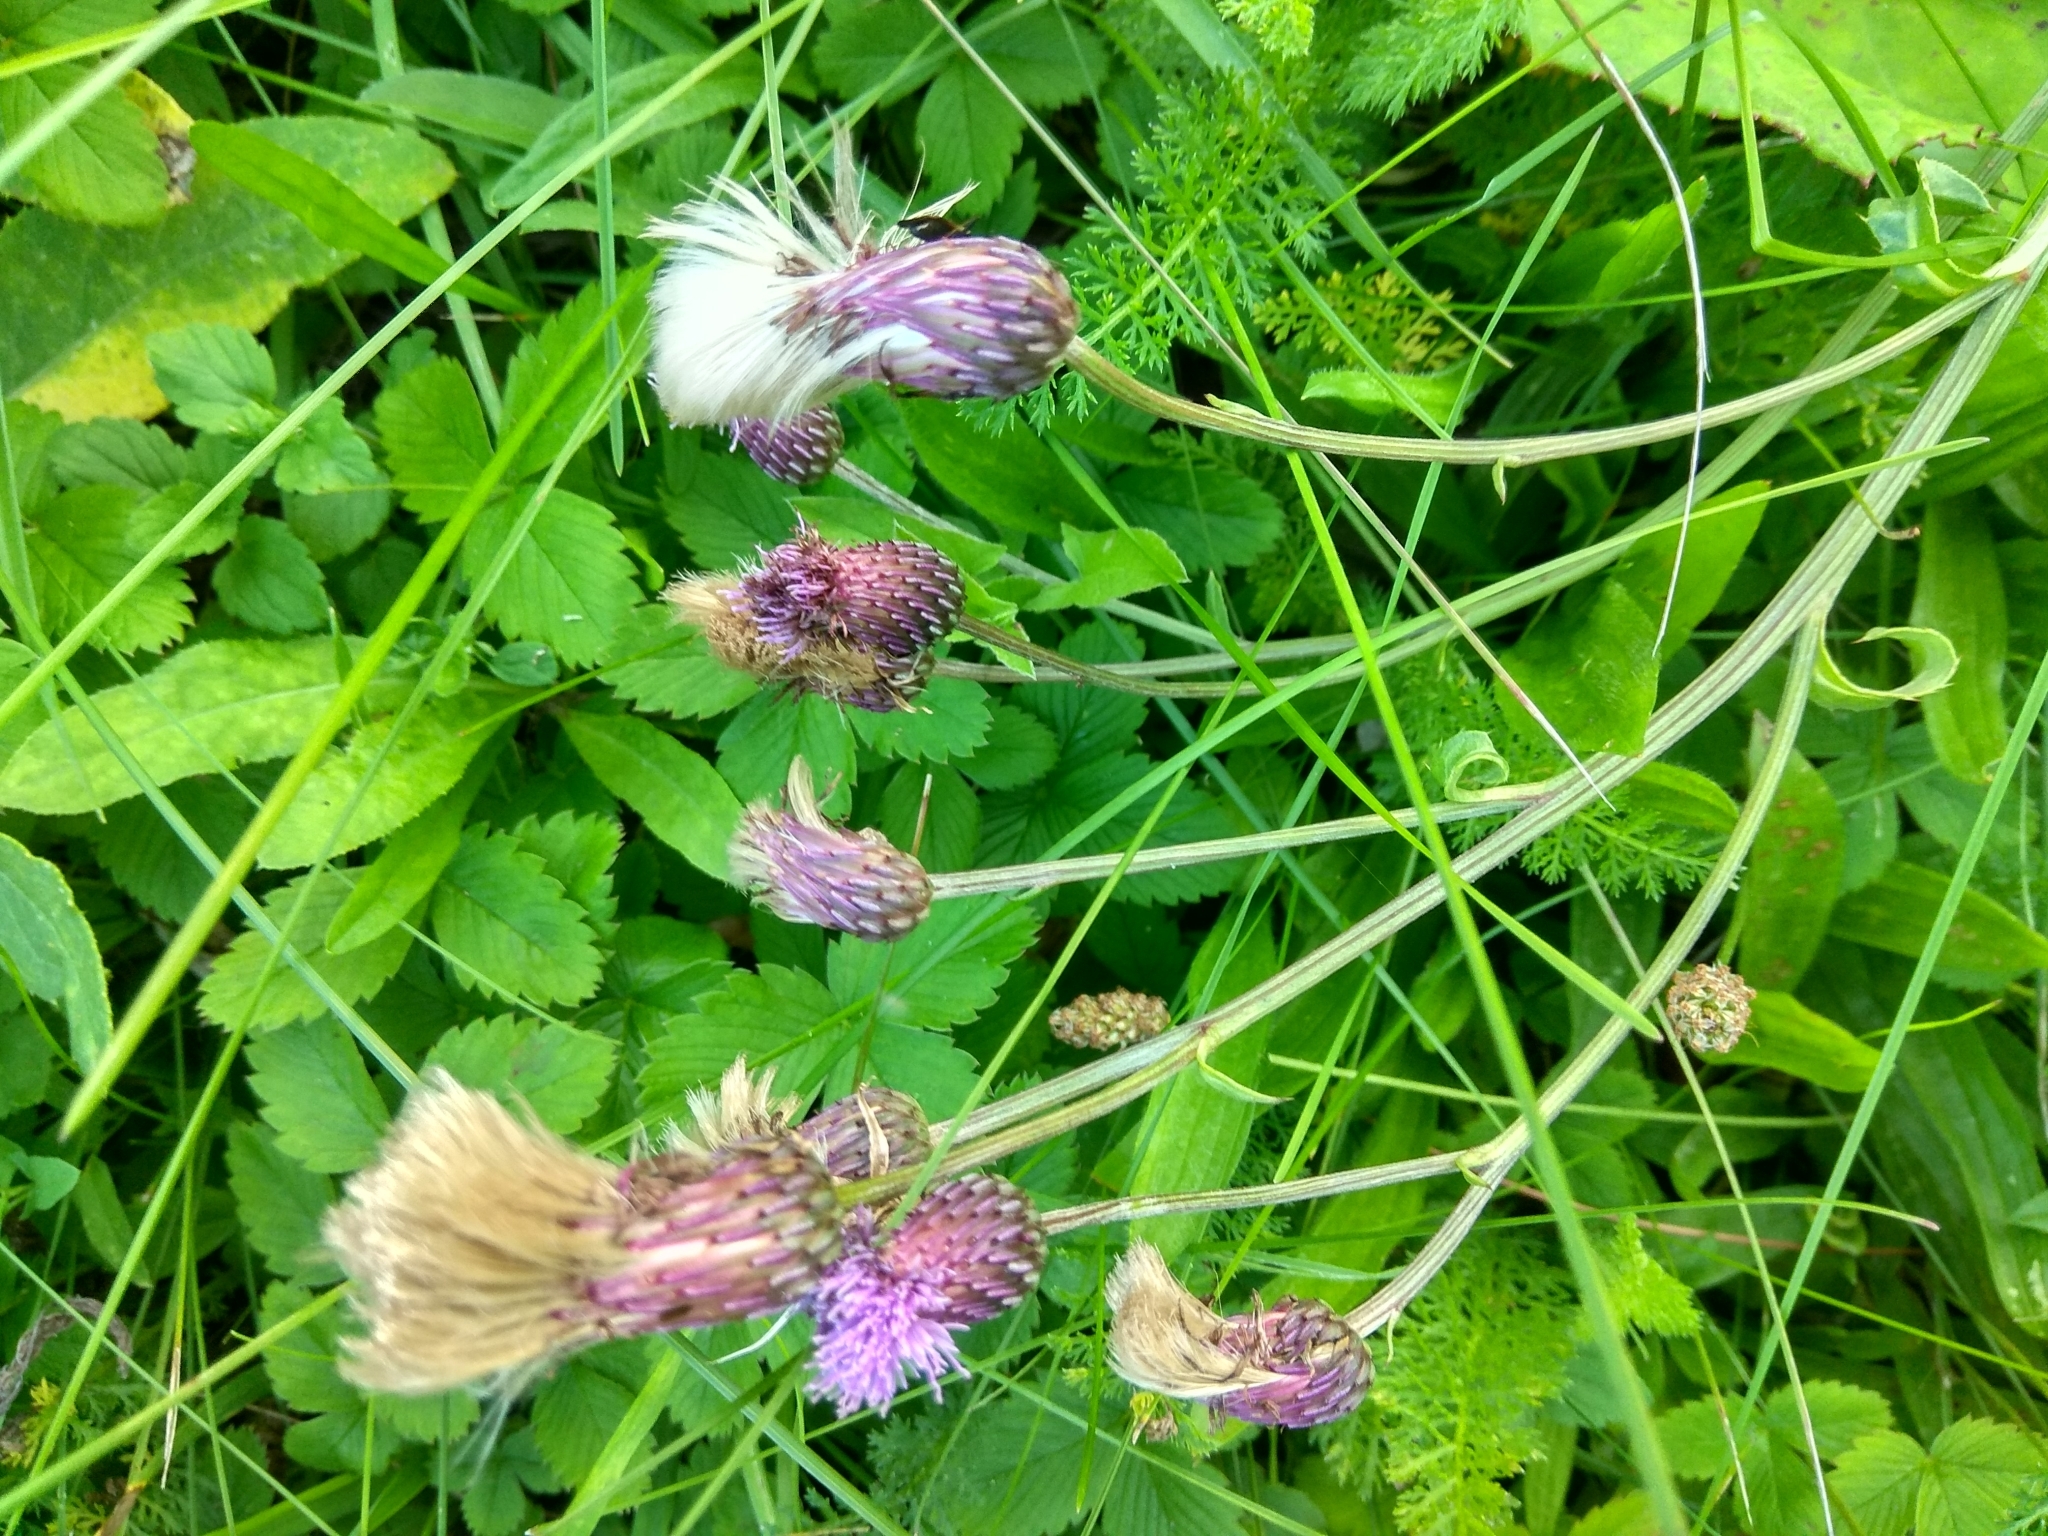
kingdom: Plantae
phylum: Tracheophyta
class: Magnoliopsida
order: Asterales
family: Asteraceae
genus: Cirsium
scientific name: Cirsium arvense
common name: Creeping thistle
